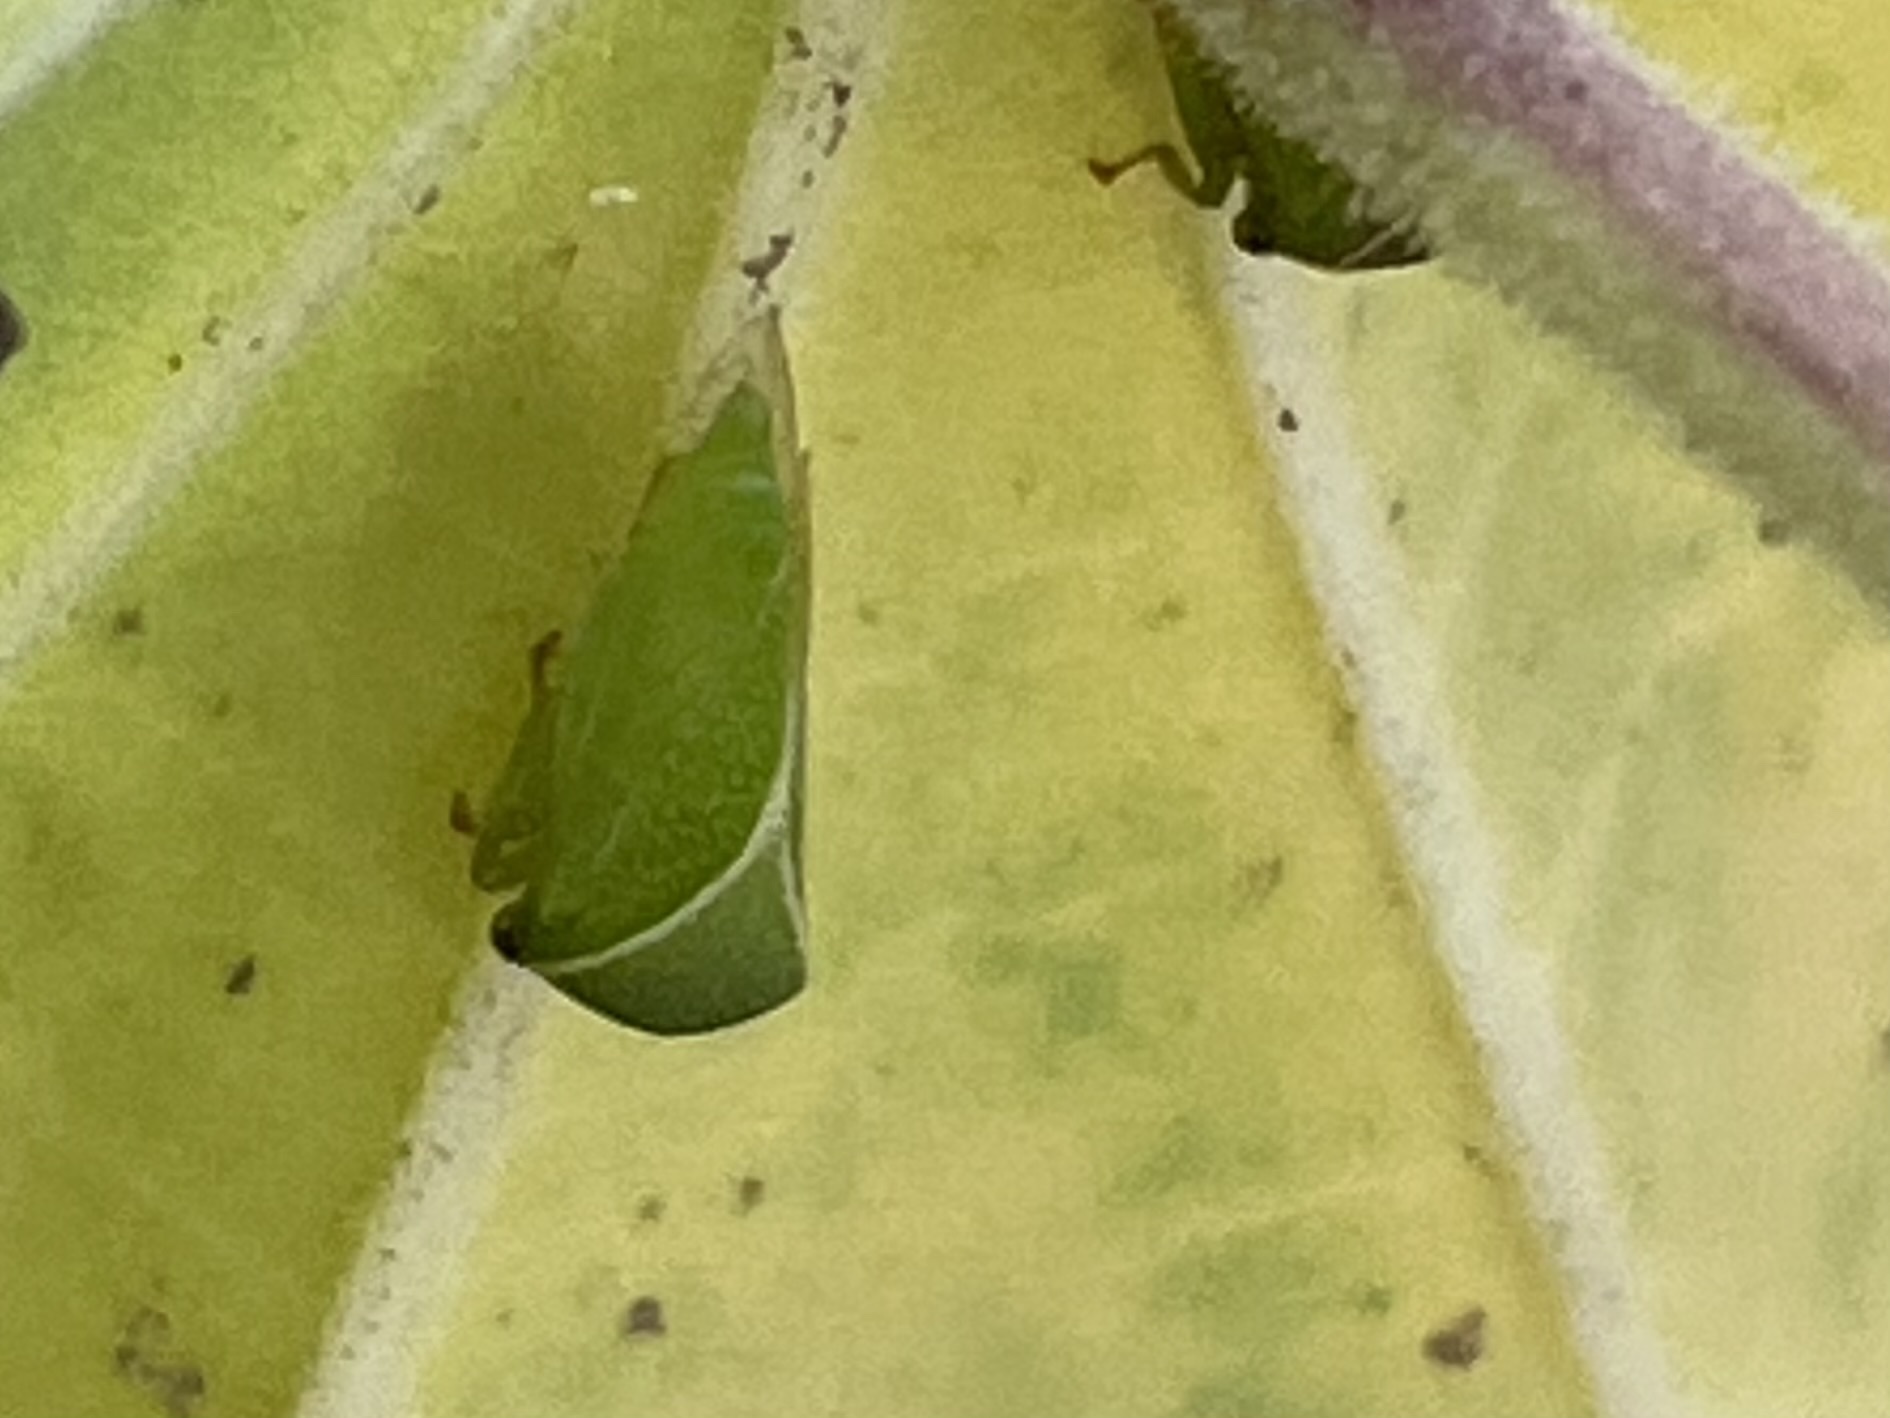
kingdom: Animalia
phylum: Arthropoda
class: Insecta
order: Hemiptera
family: Membracidae
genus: Spissistilus
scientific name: Spissistilus festina
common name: Membracid bug
